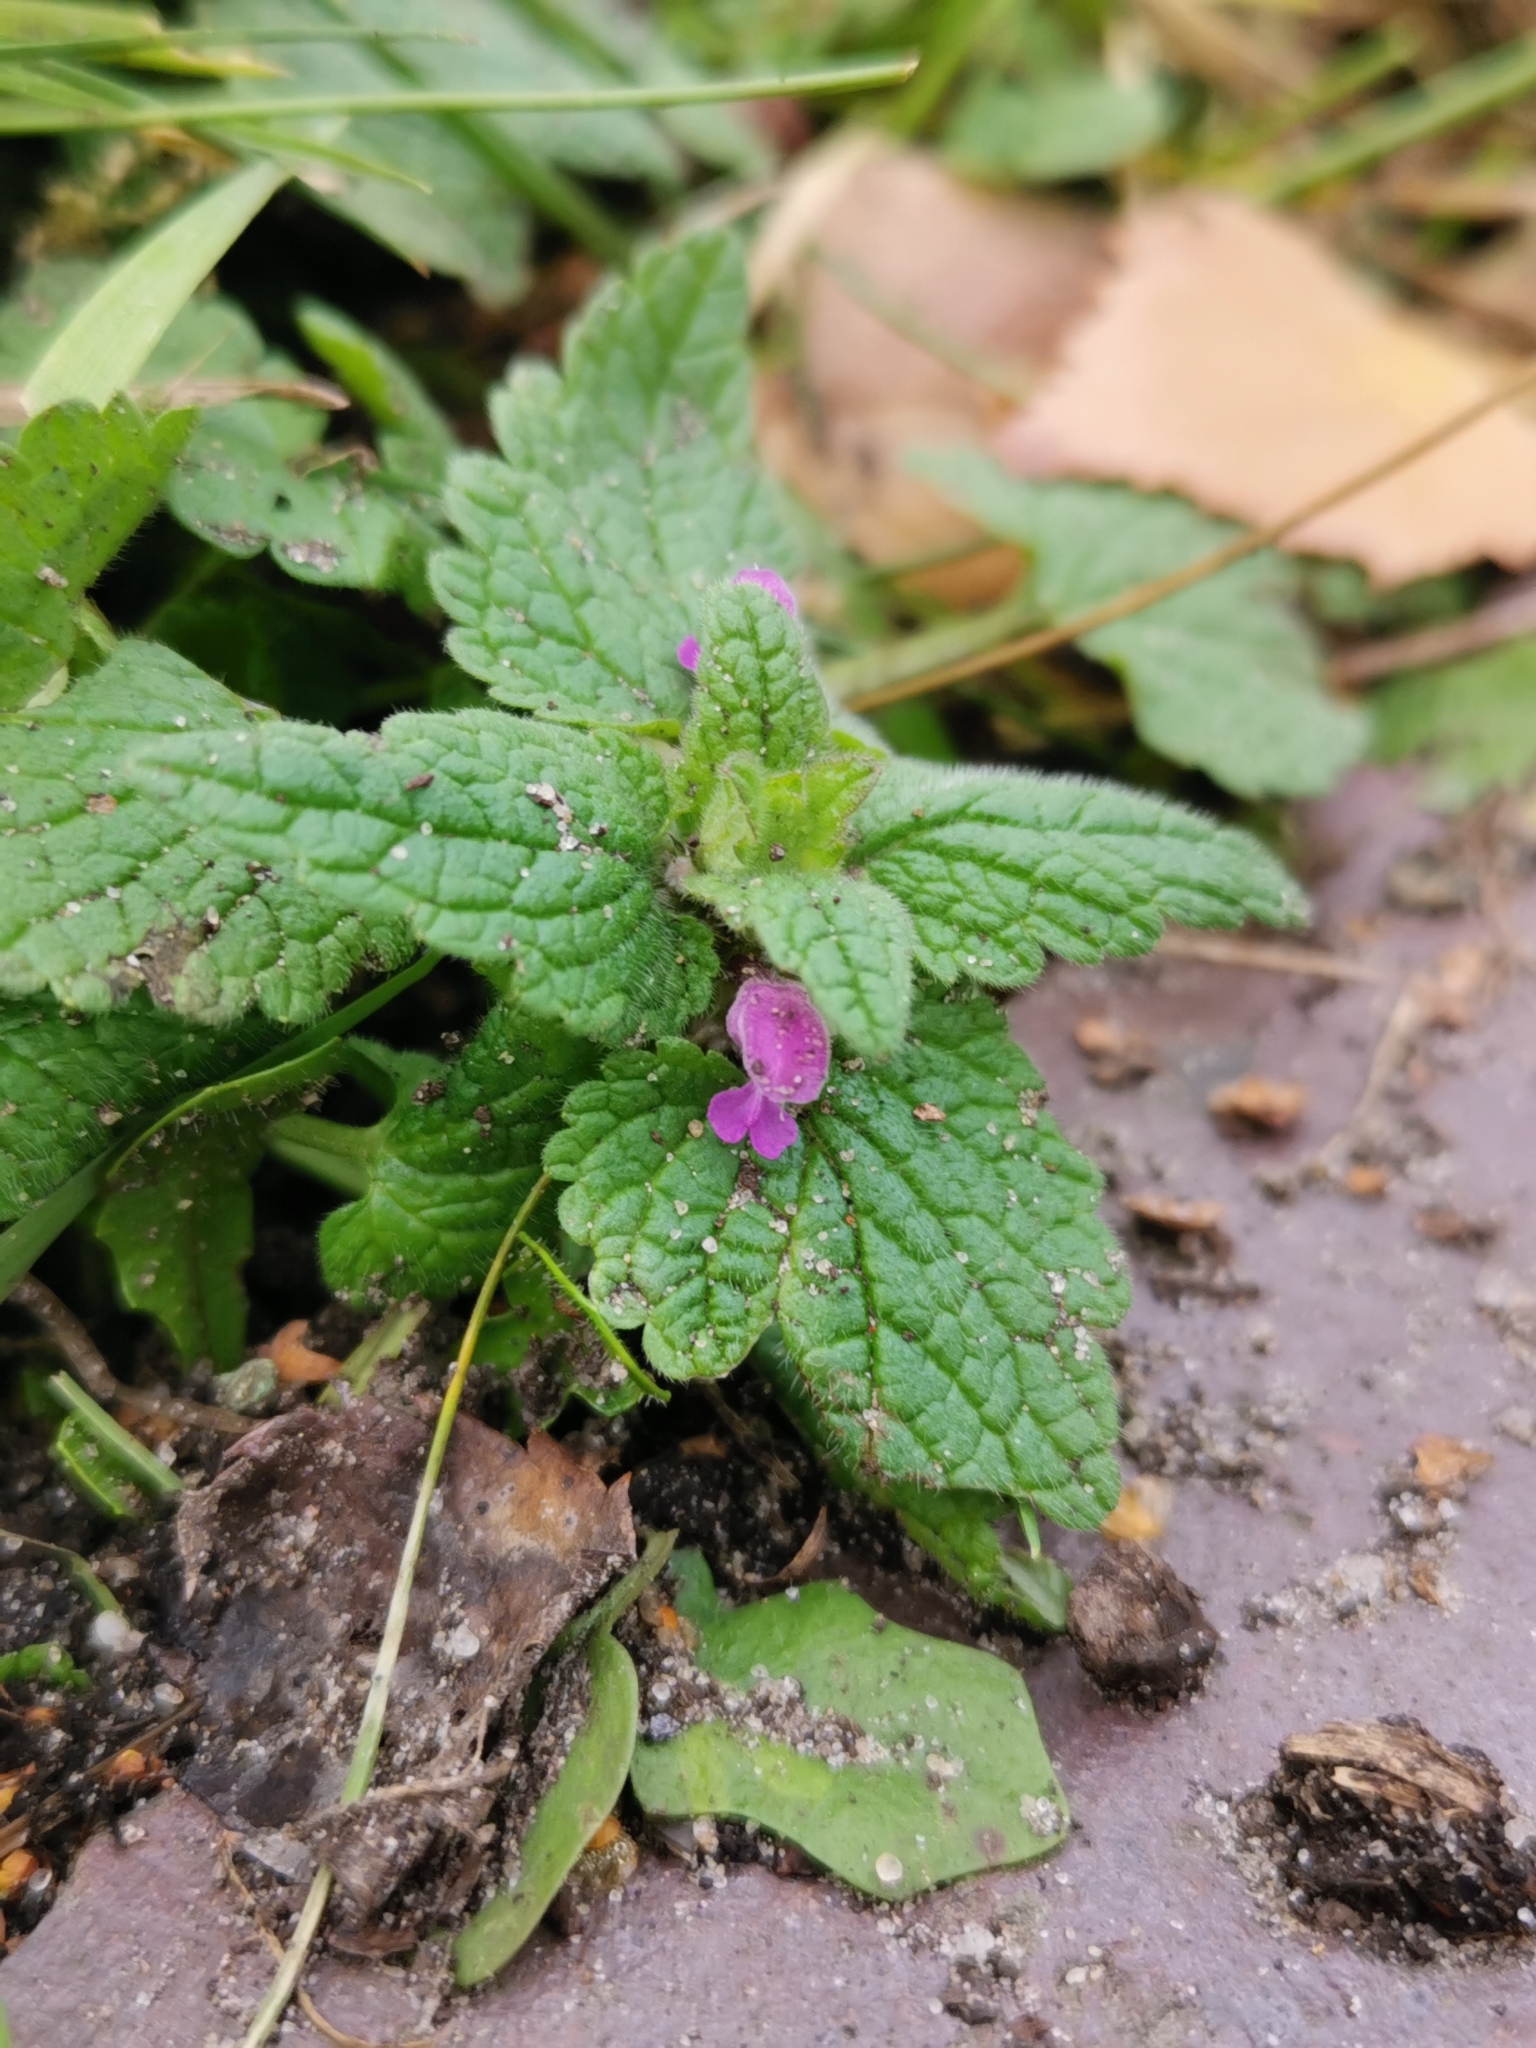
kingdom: Plantae
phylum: Tracheophyta
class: Magnoliopsida
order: Lamiales
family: Lamiaceae
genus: Lamium
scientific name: Lamium purpureum
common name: Red dead-nettle
